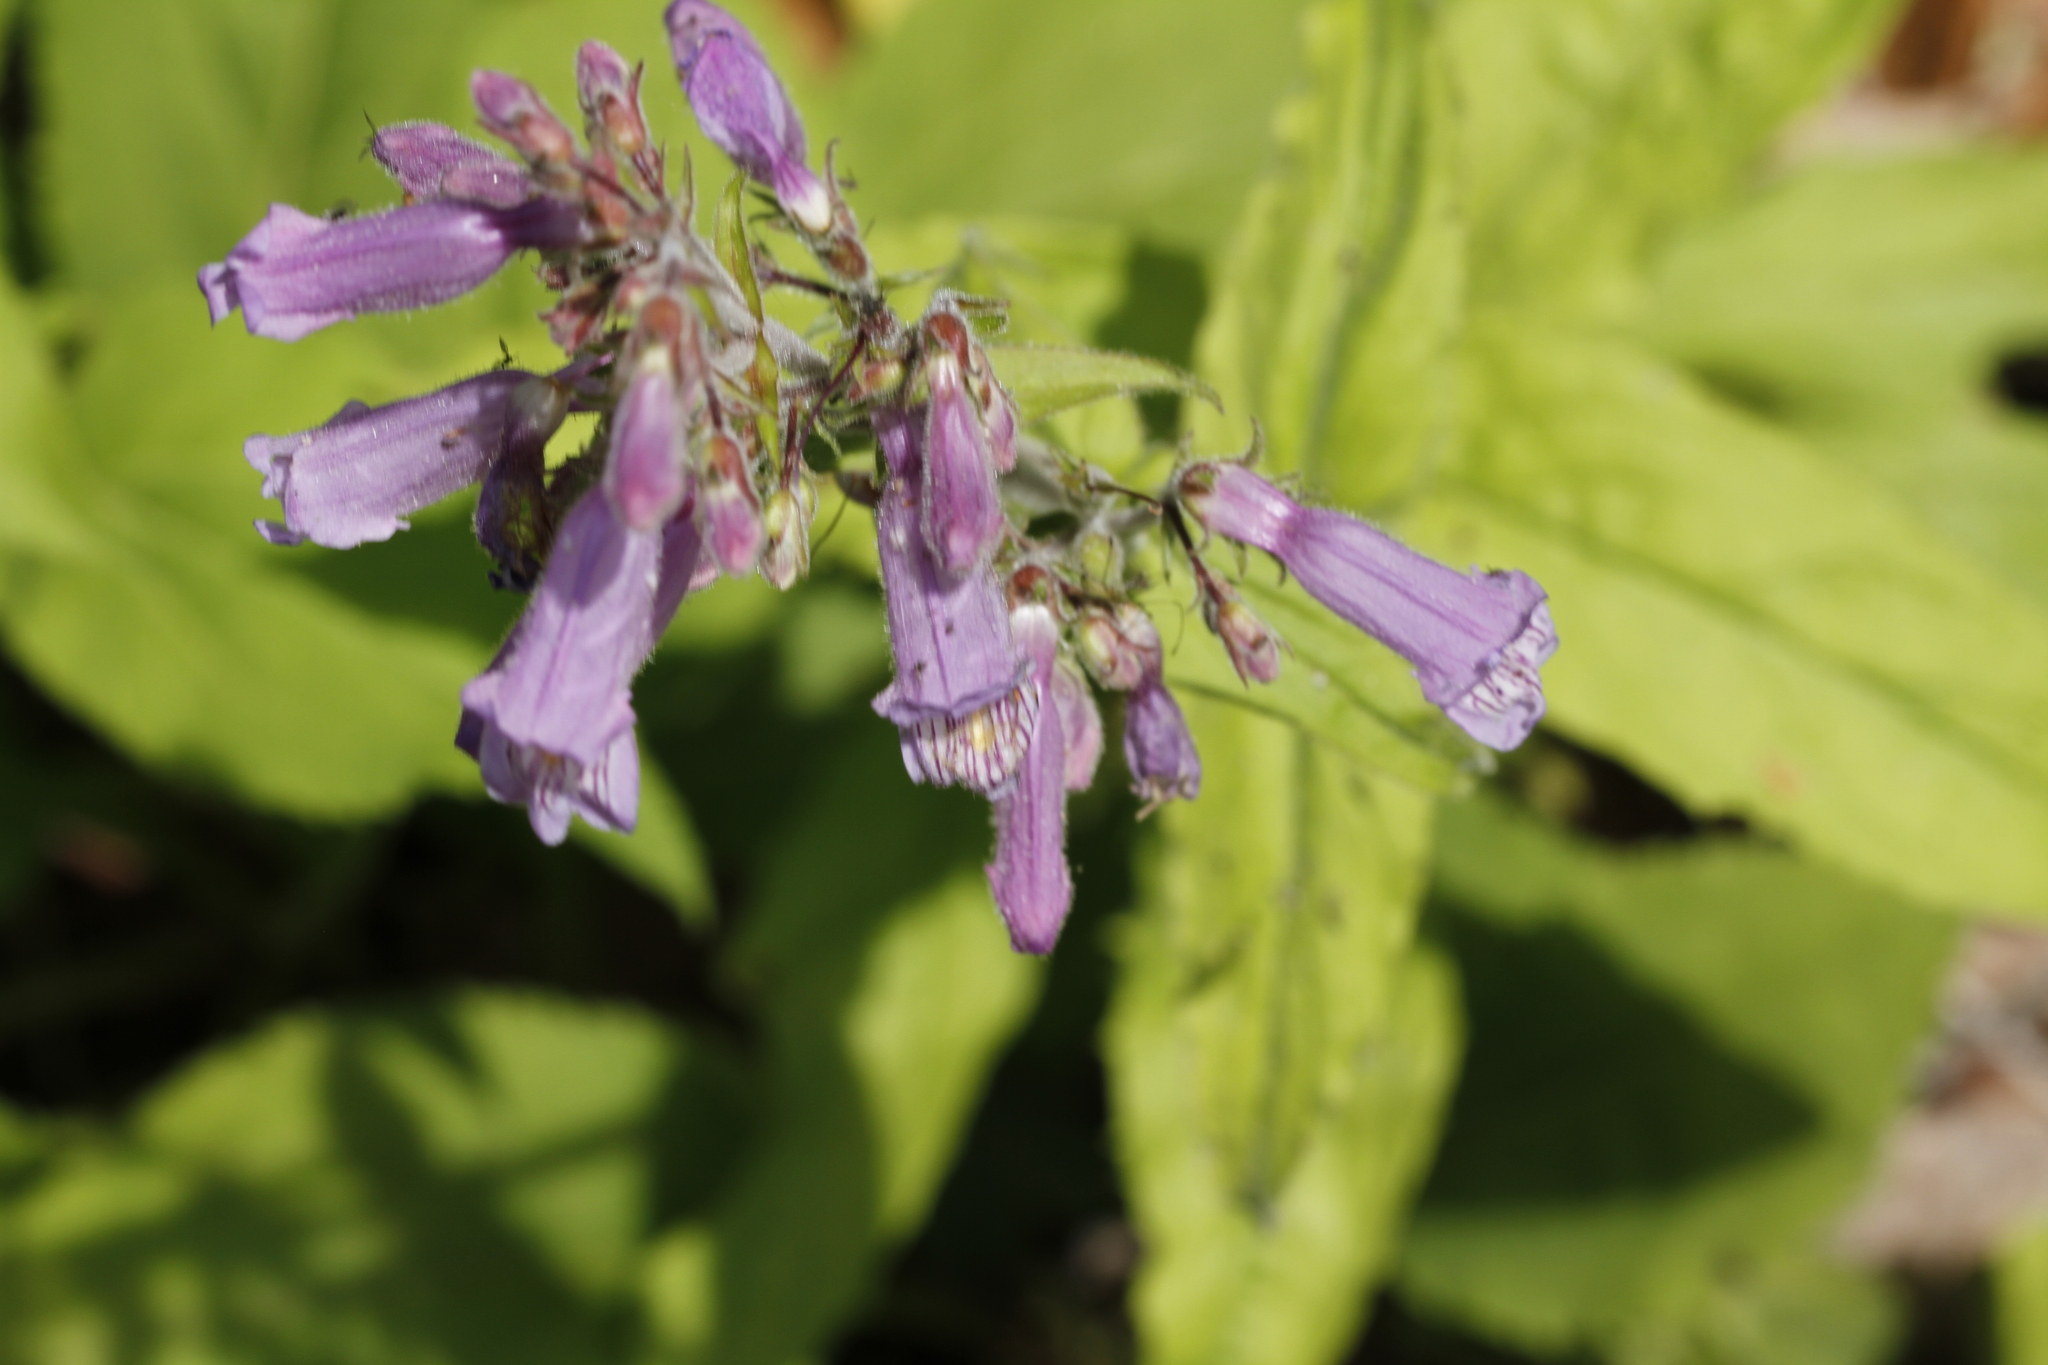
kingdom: Plantae
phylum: Tracheophyta
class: Magnoliopsida
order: Lamiales
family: Plantaginaceae
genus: Penstemon
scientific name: Penstemon canescens
